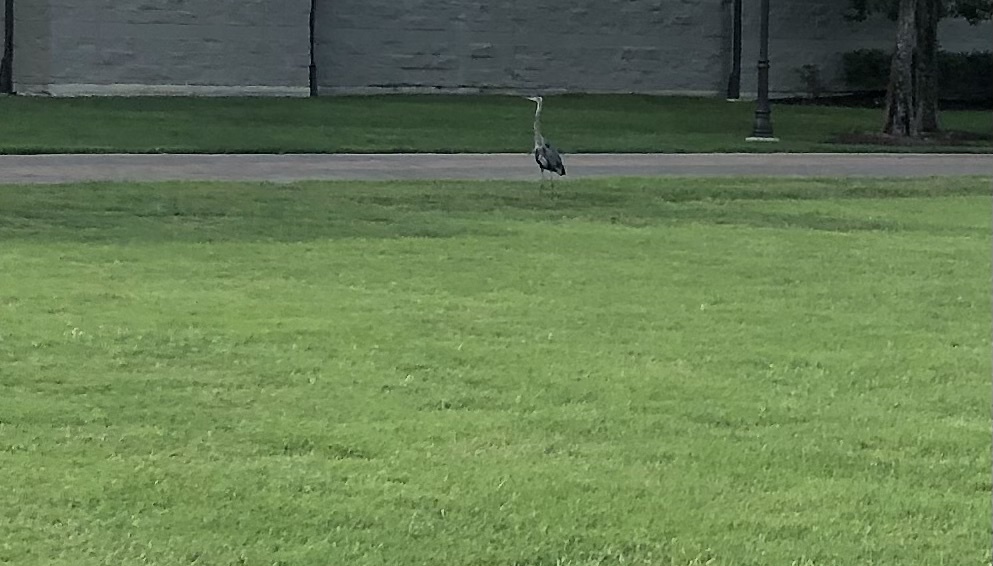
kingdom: Animalia
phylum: Chordata
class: Aves
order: Pelecaniformes
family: Ardeidae
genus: Ardea
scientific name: Ardea herodias
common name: Great blue heron
